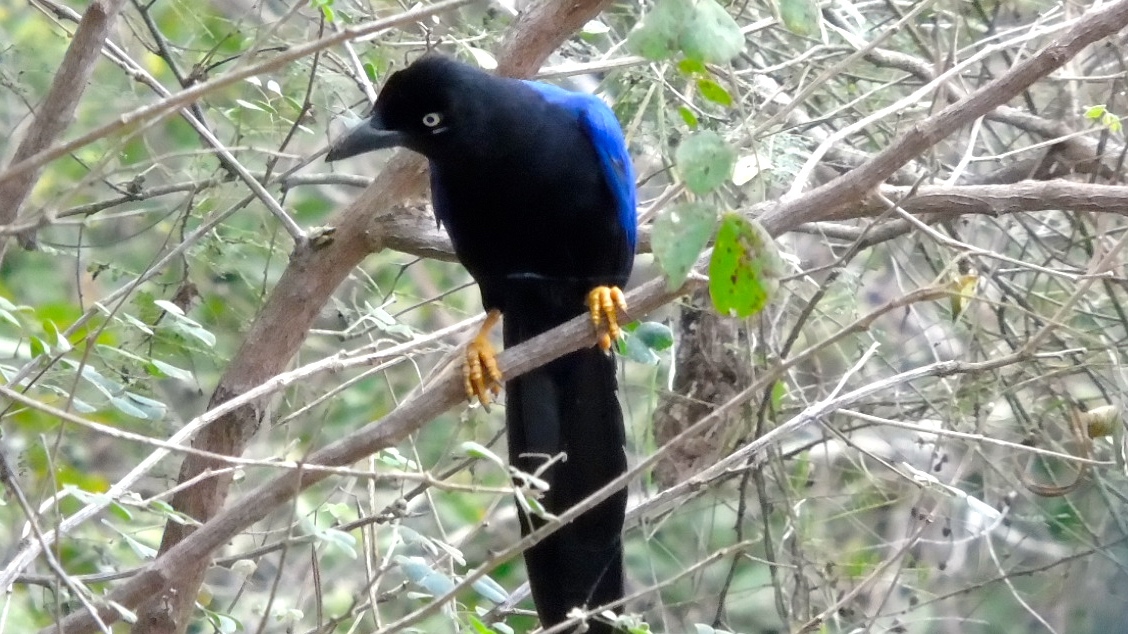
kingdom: Animalia
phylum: Chordata
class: Aves
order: Passeriformes
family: Corvidae
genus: Cyanocorax
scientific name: Cyanocorax beecheii
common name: Purplish-backed jay
